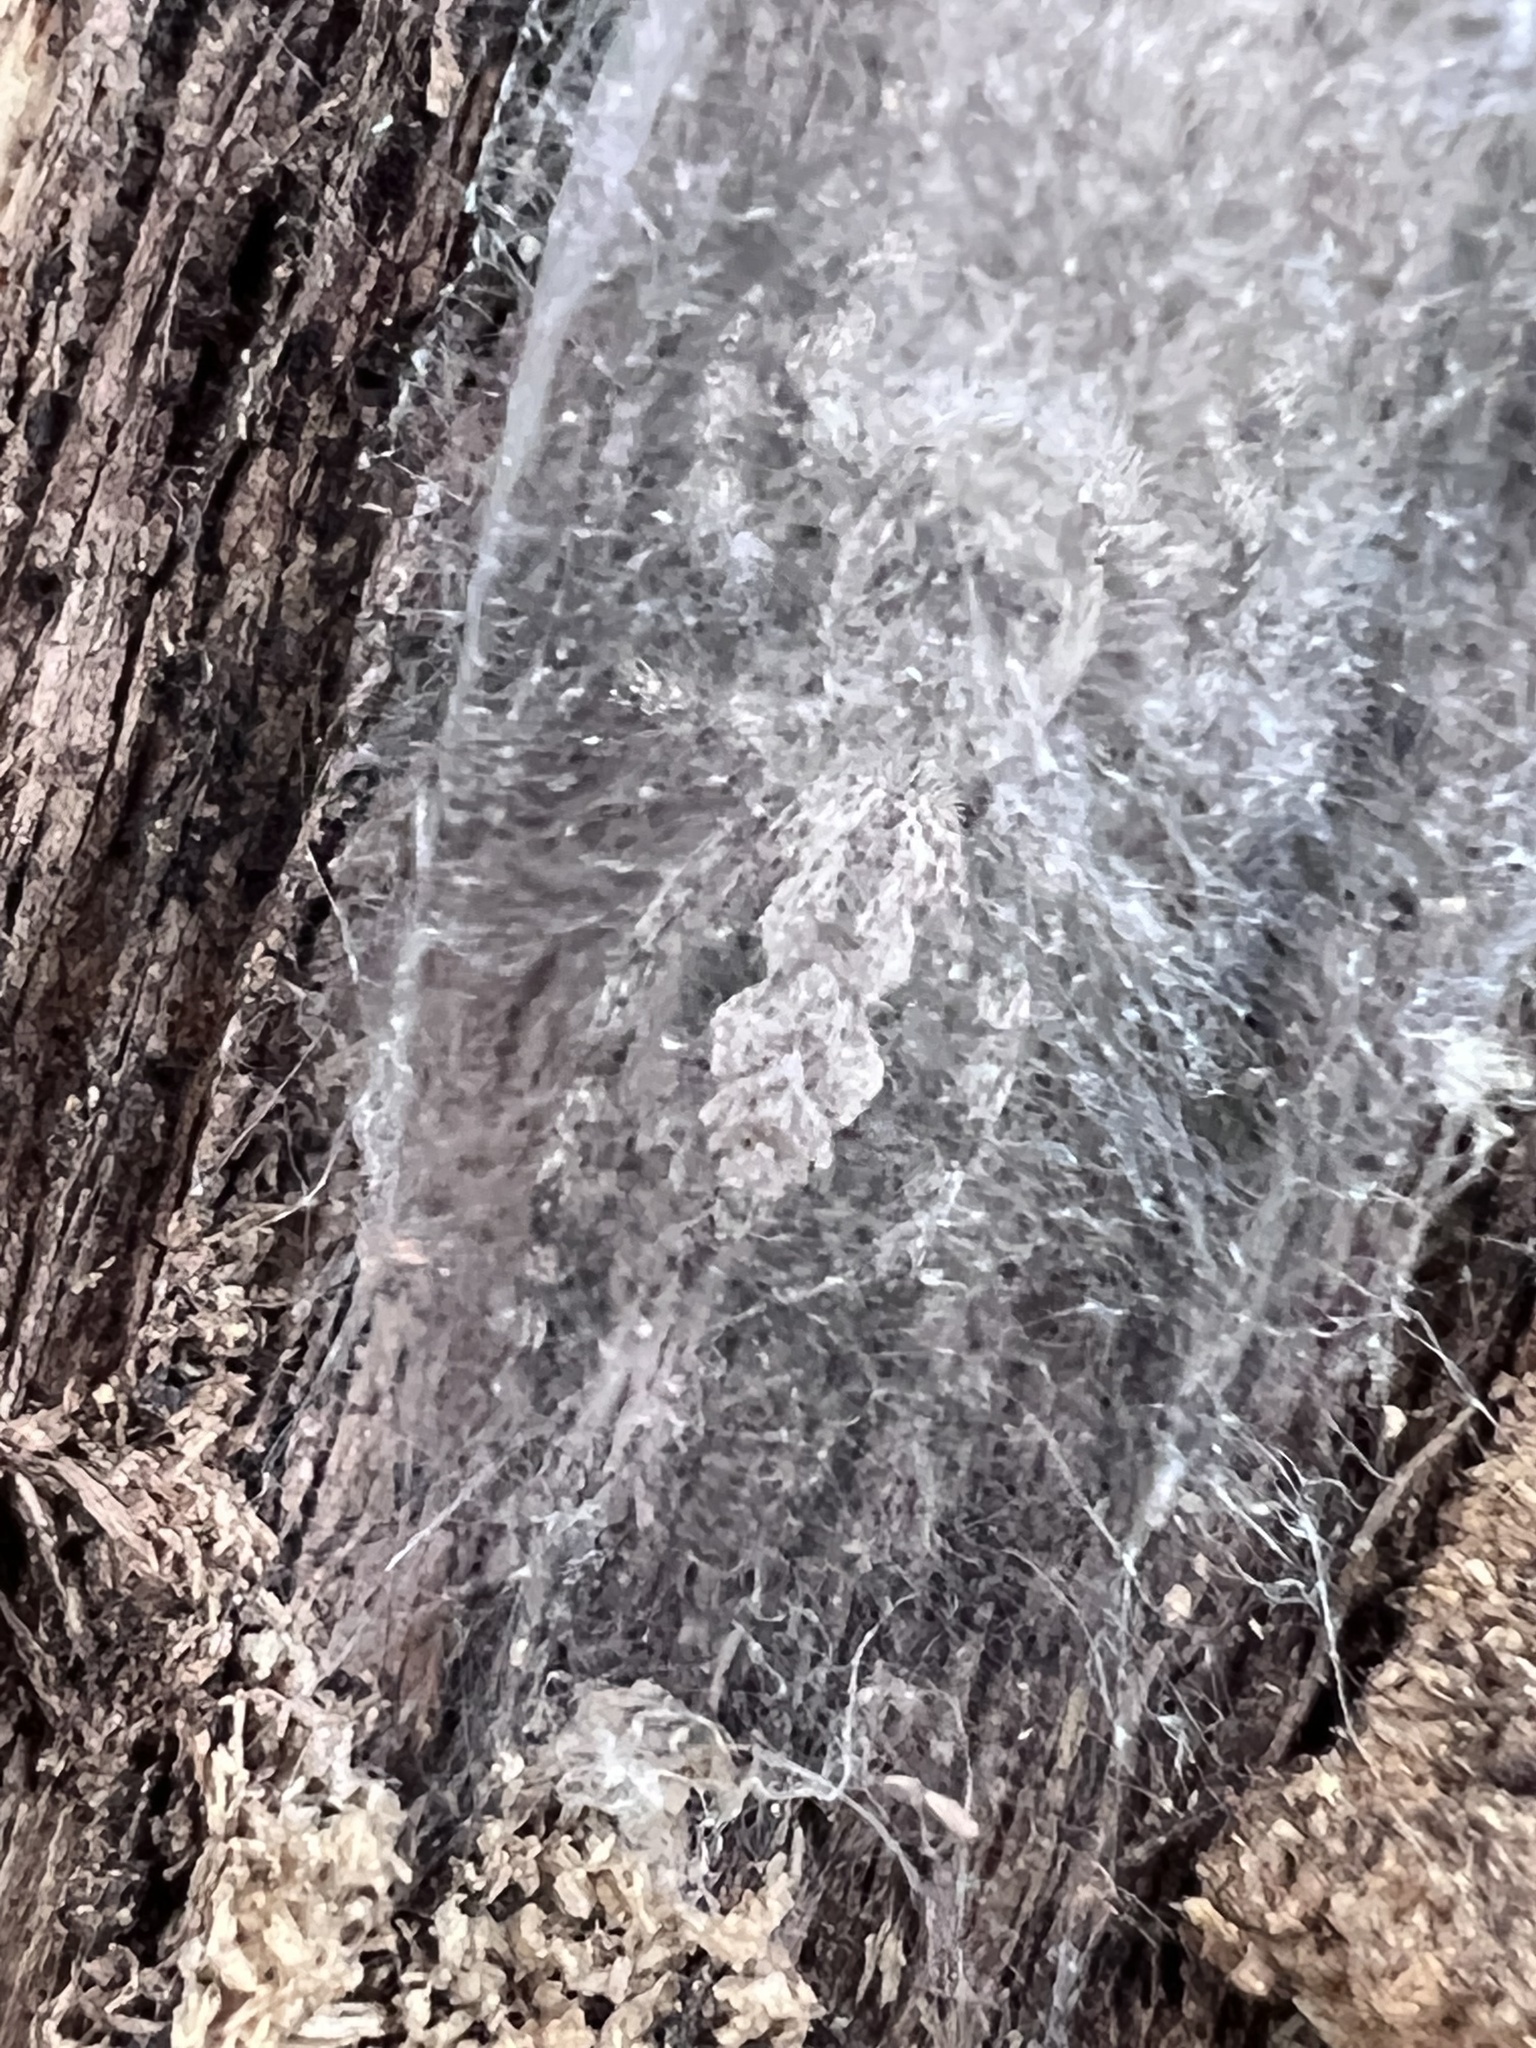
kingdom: Animalia
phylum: Arthropoda
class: Arachnida
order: Araneae
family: Salticidae
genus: Platycryptus
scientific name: Platycryptus undatus
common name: Tan jumping spider
